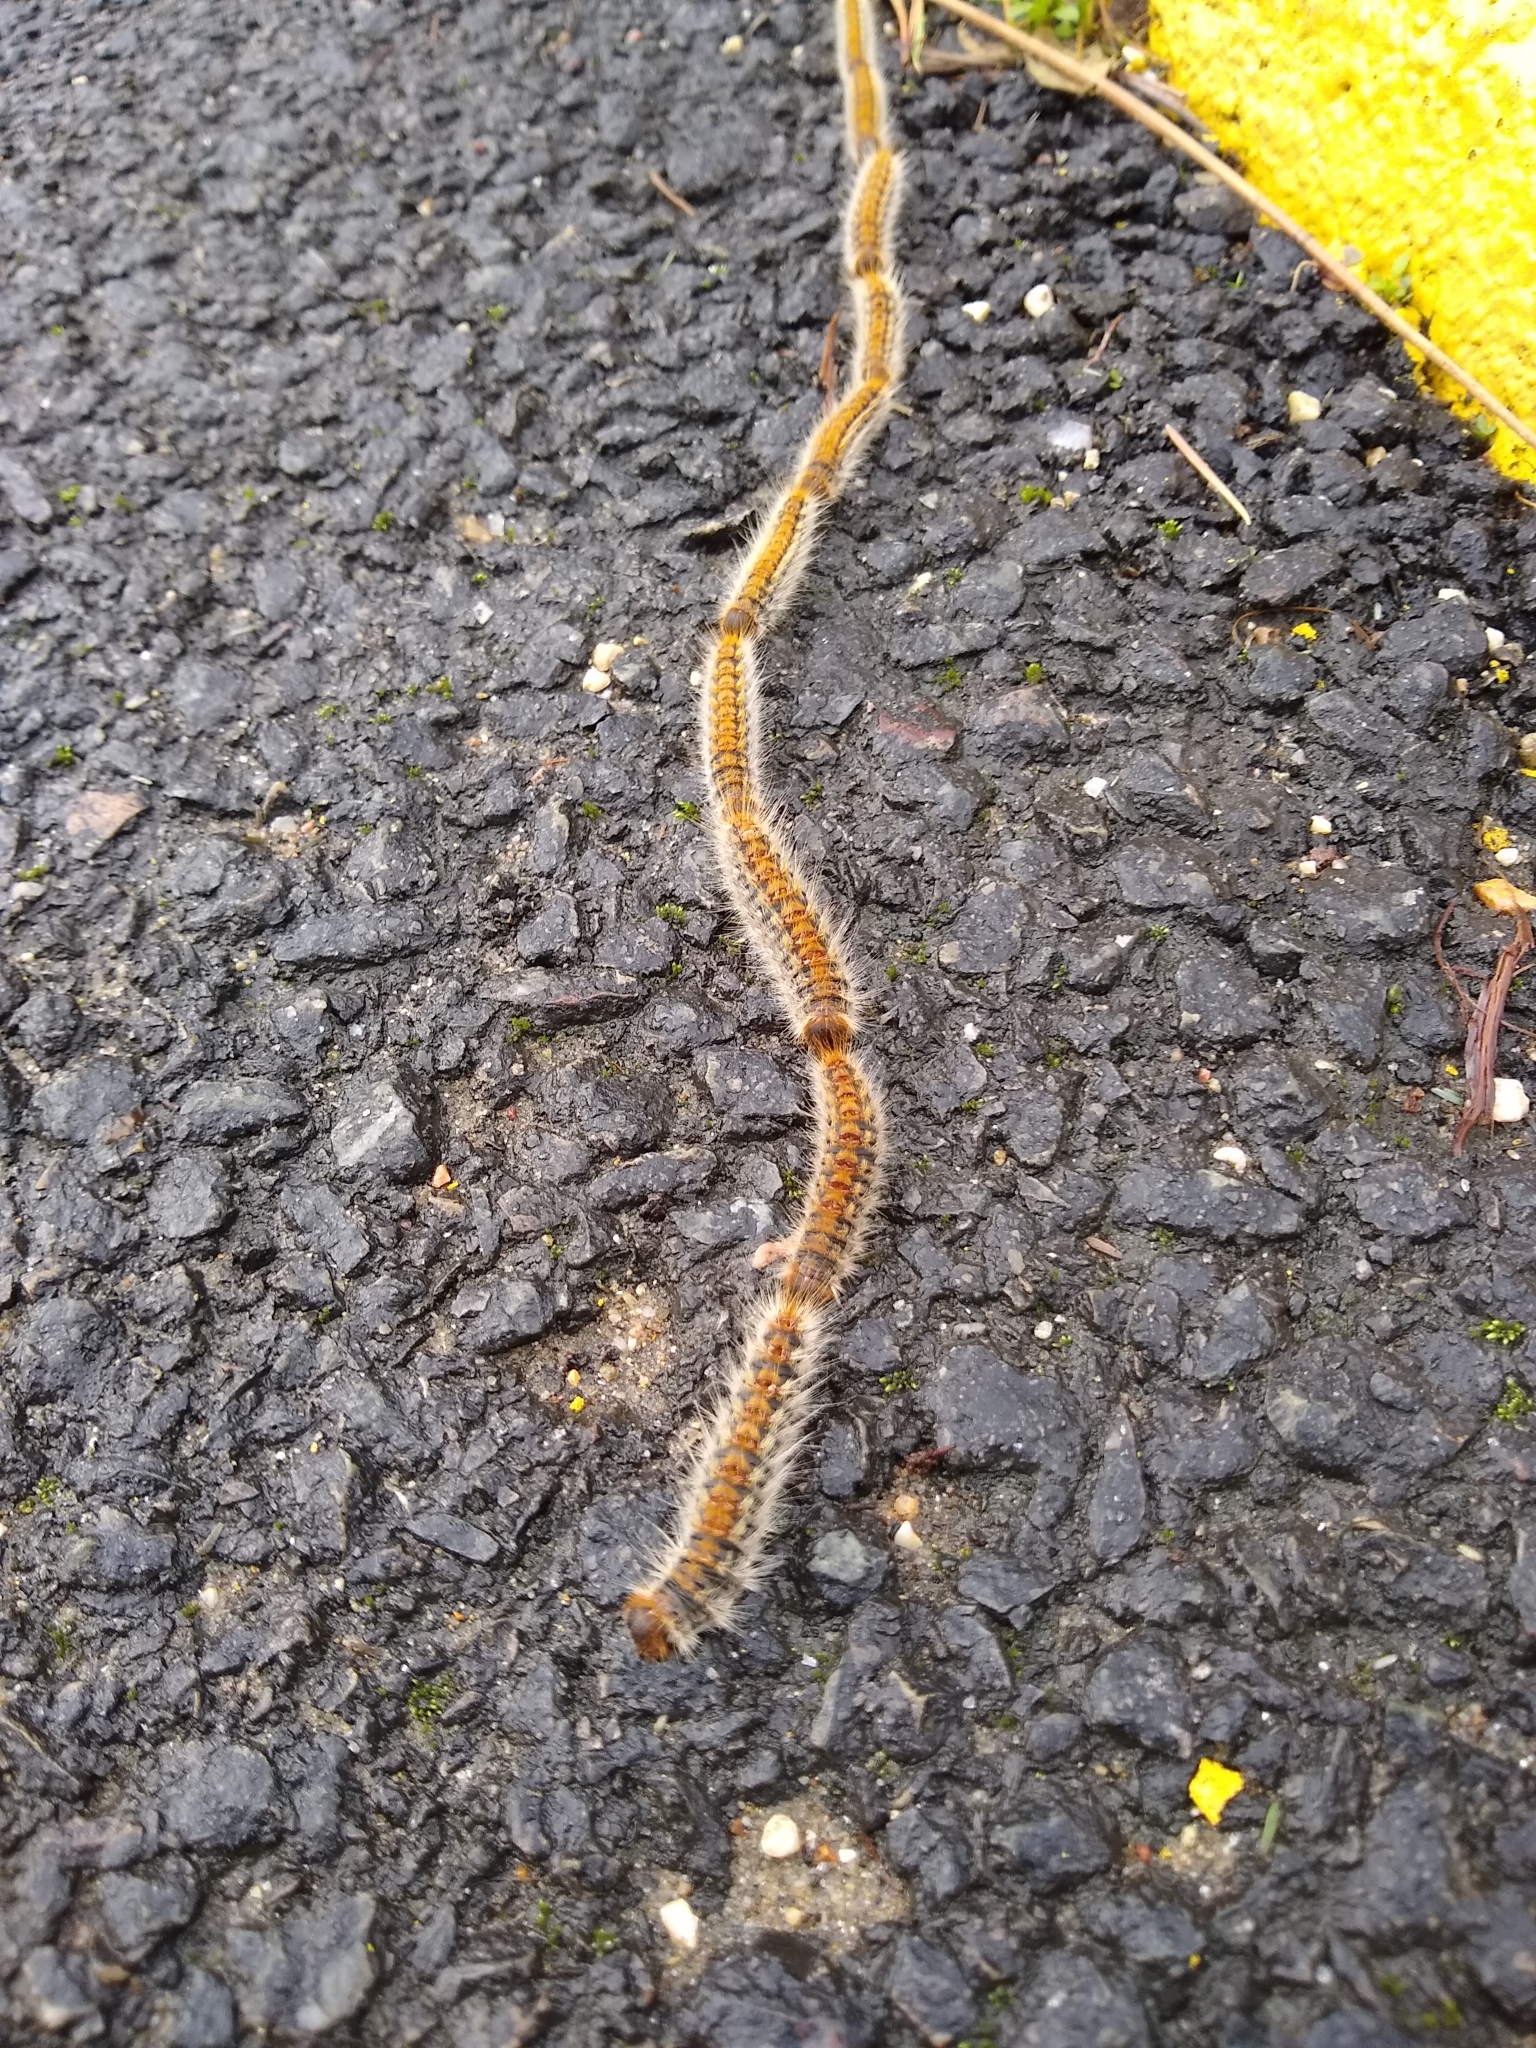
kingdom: Animalia
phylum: Arthropoda
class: Insecta
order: Lepidoptera
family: Notodontidae
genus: Thaumetopoea
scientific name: Thaumetopoea pityocampa
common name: Pine processionary
